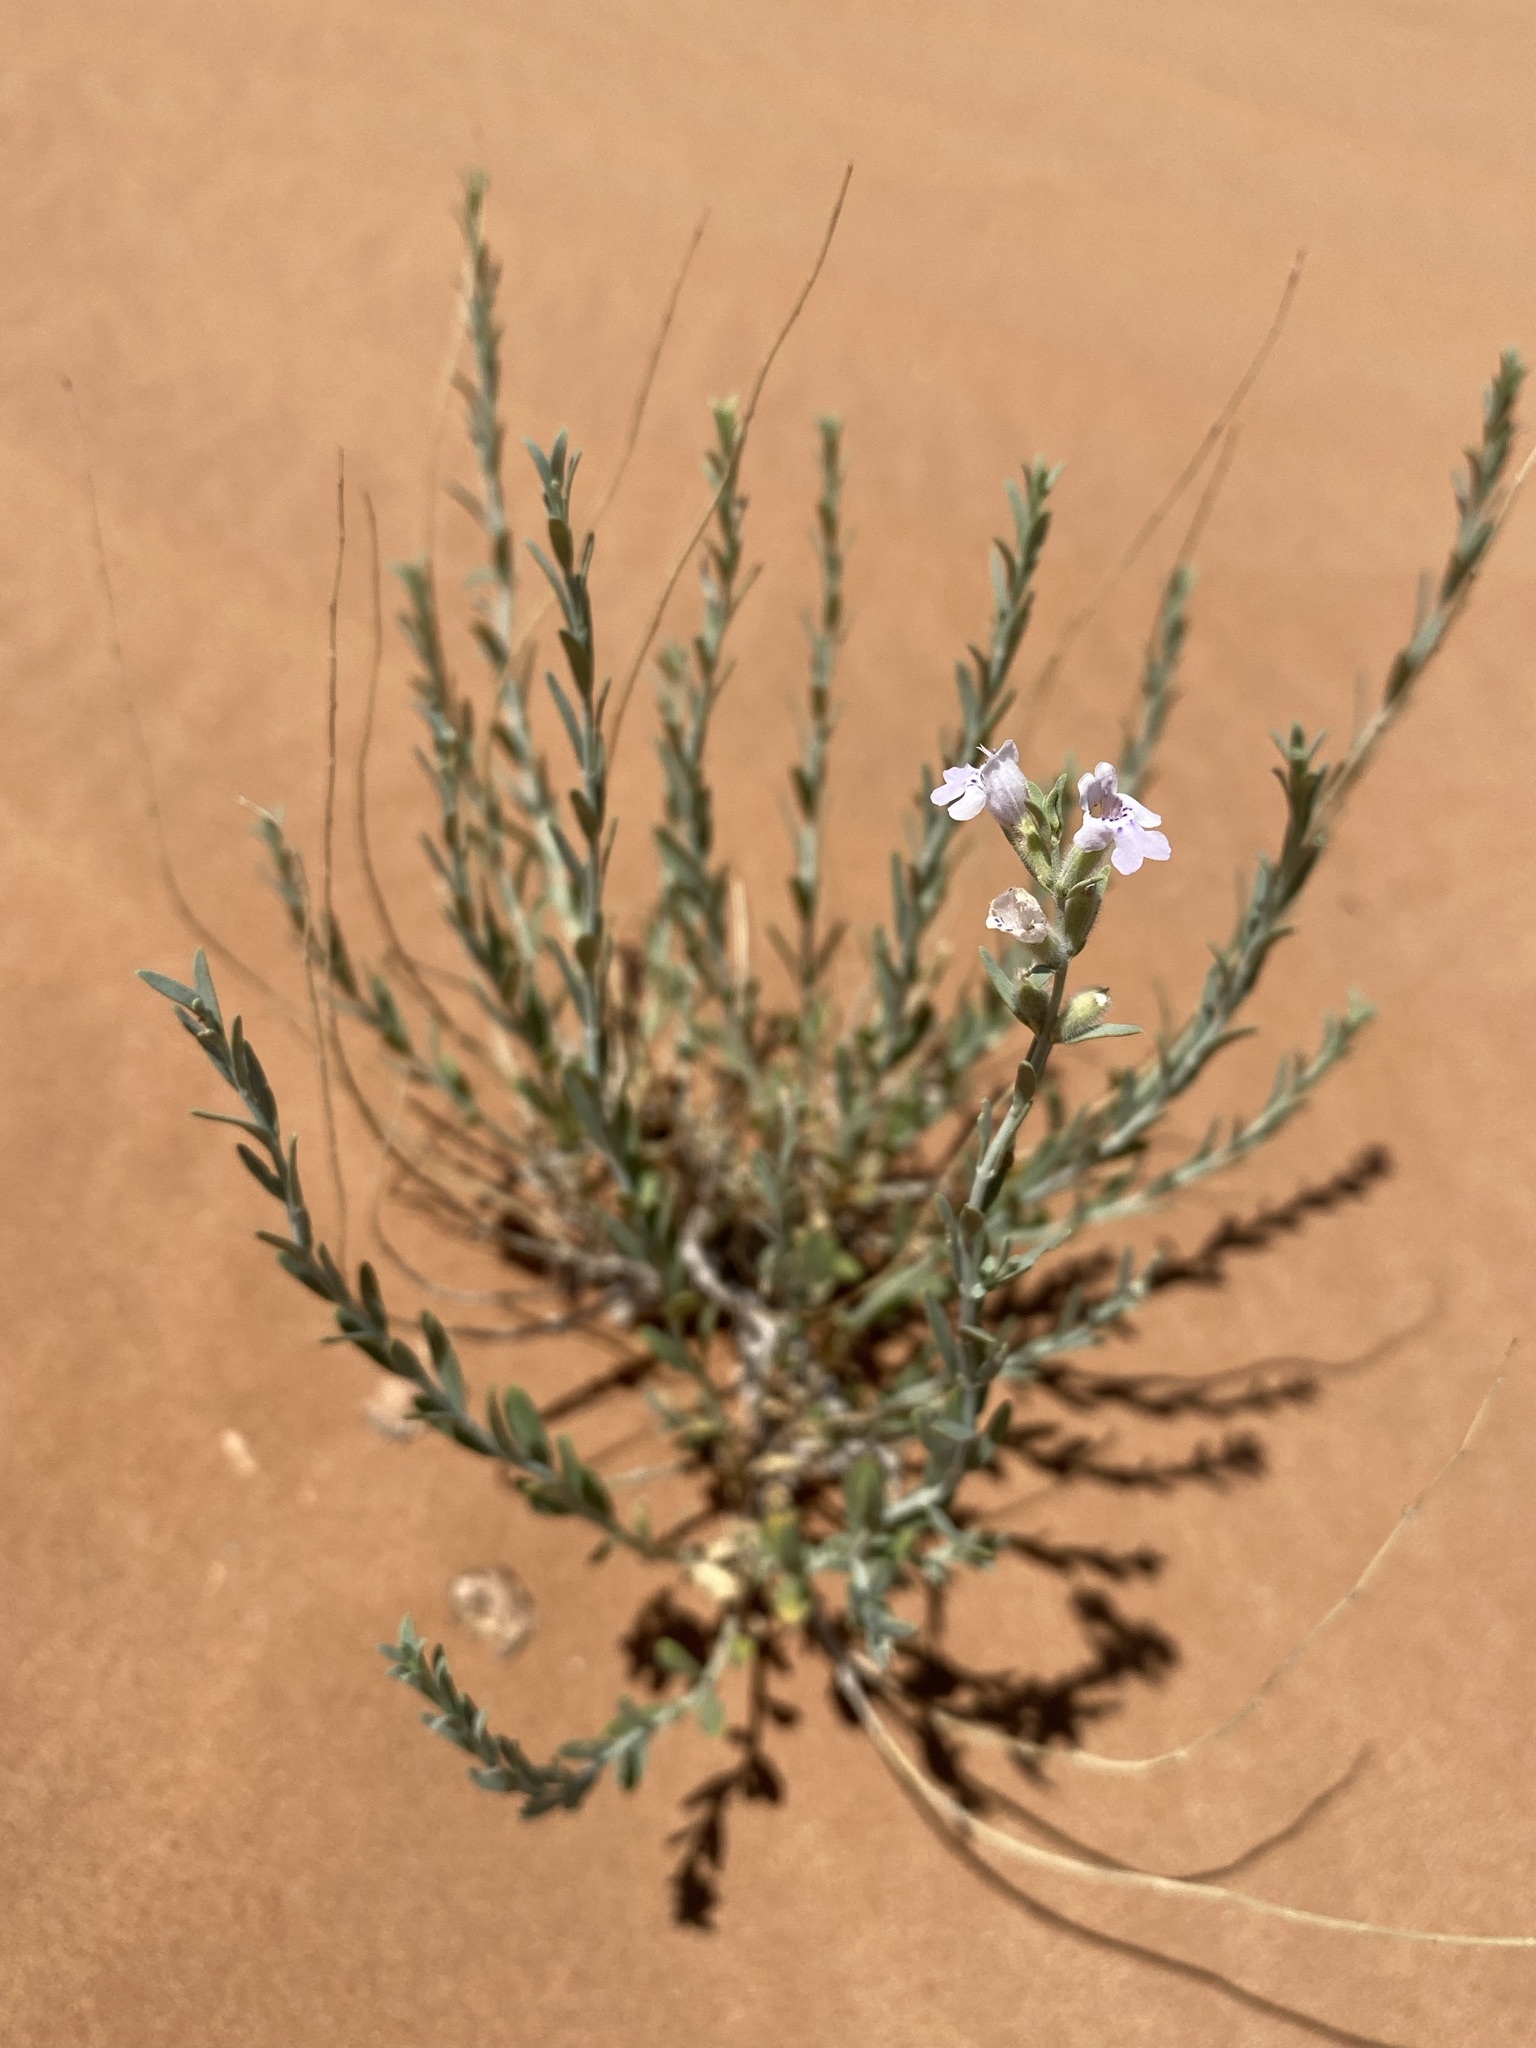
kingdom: Plantae
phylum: Tracheophyta
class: Magnoliopsida
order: Lamiales
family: Lamiaceae
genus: Poliomintha
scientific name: Poliomintha incana
